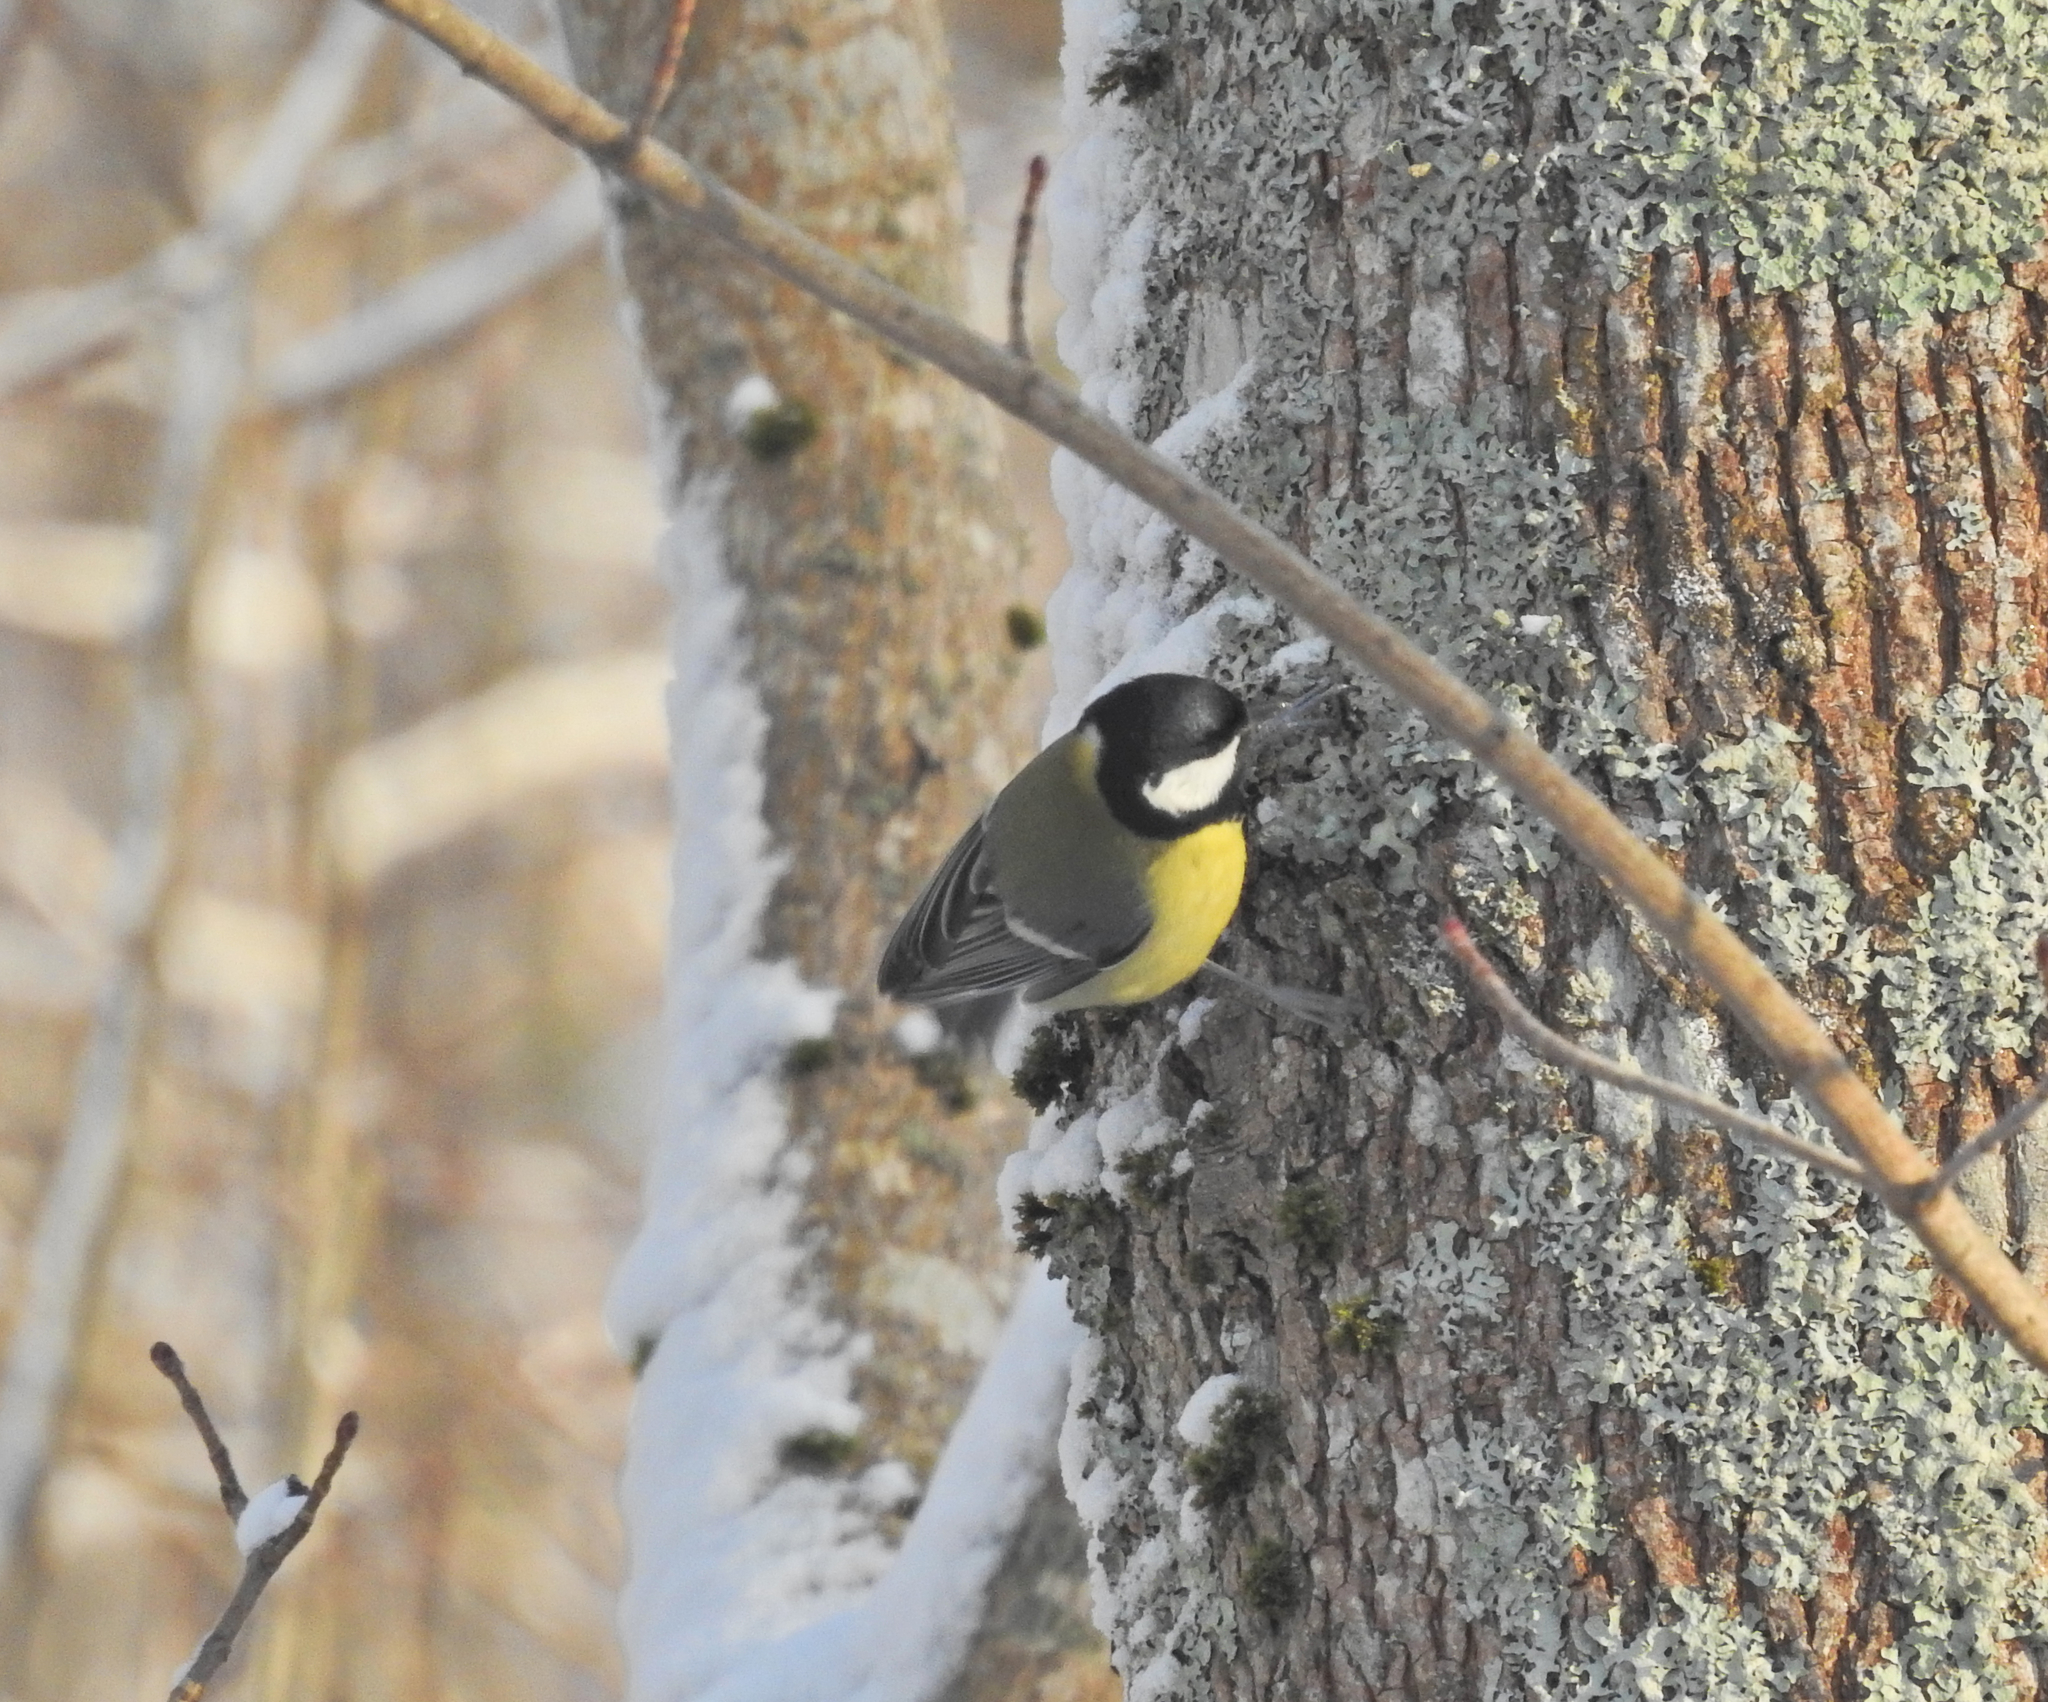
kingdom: Animalia
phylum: Chordata
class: Aves
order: Passeriformes
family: Paridae
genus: Parus
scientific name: Parus major
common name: Great tit
